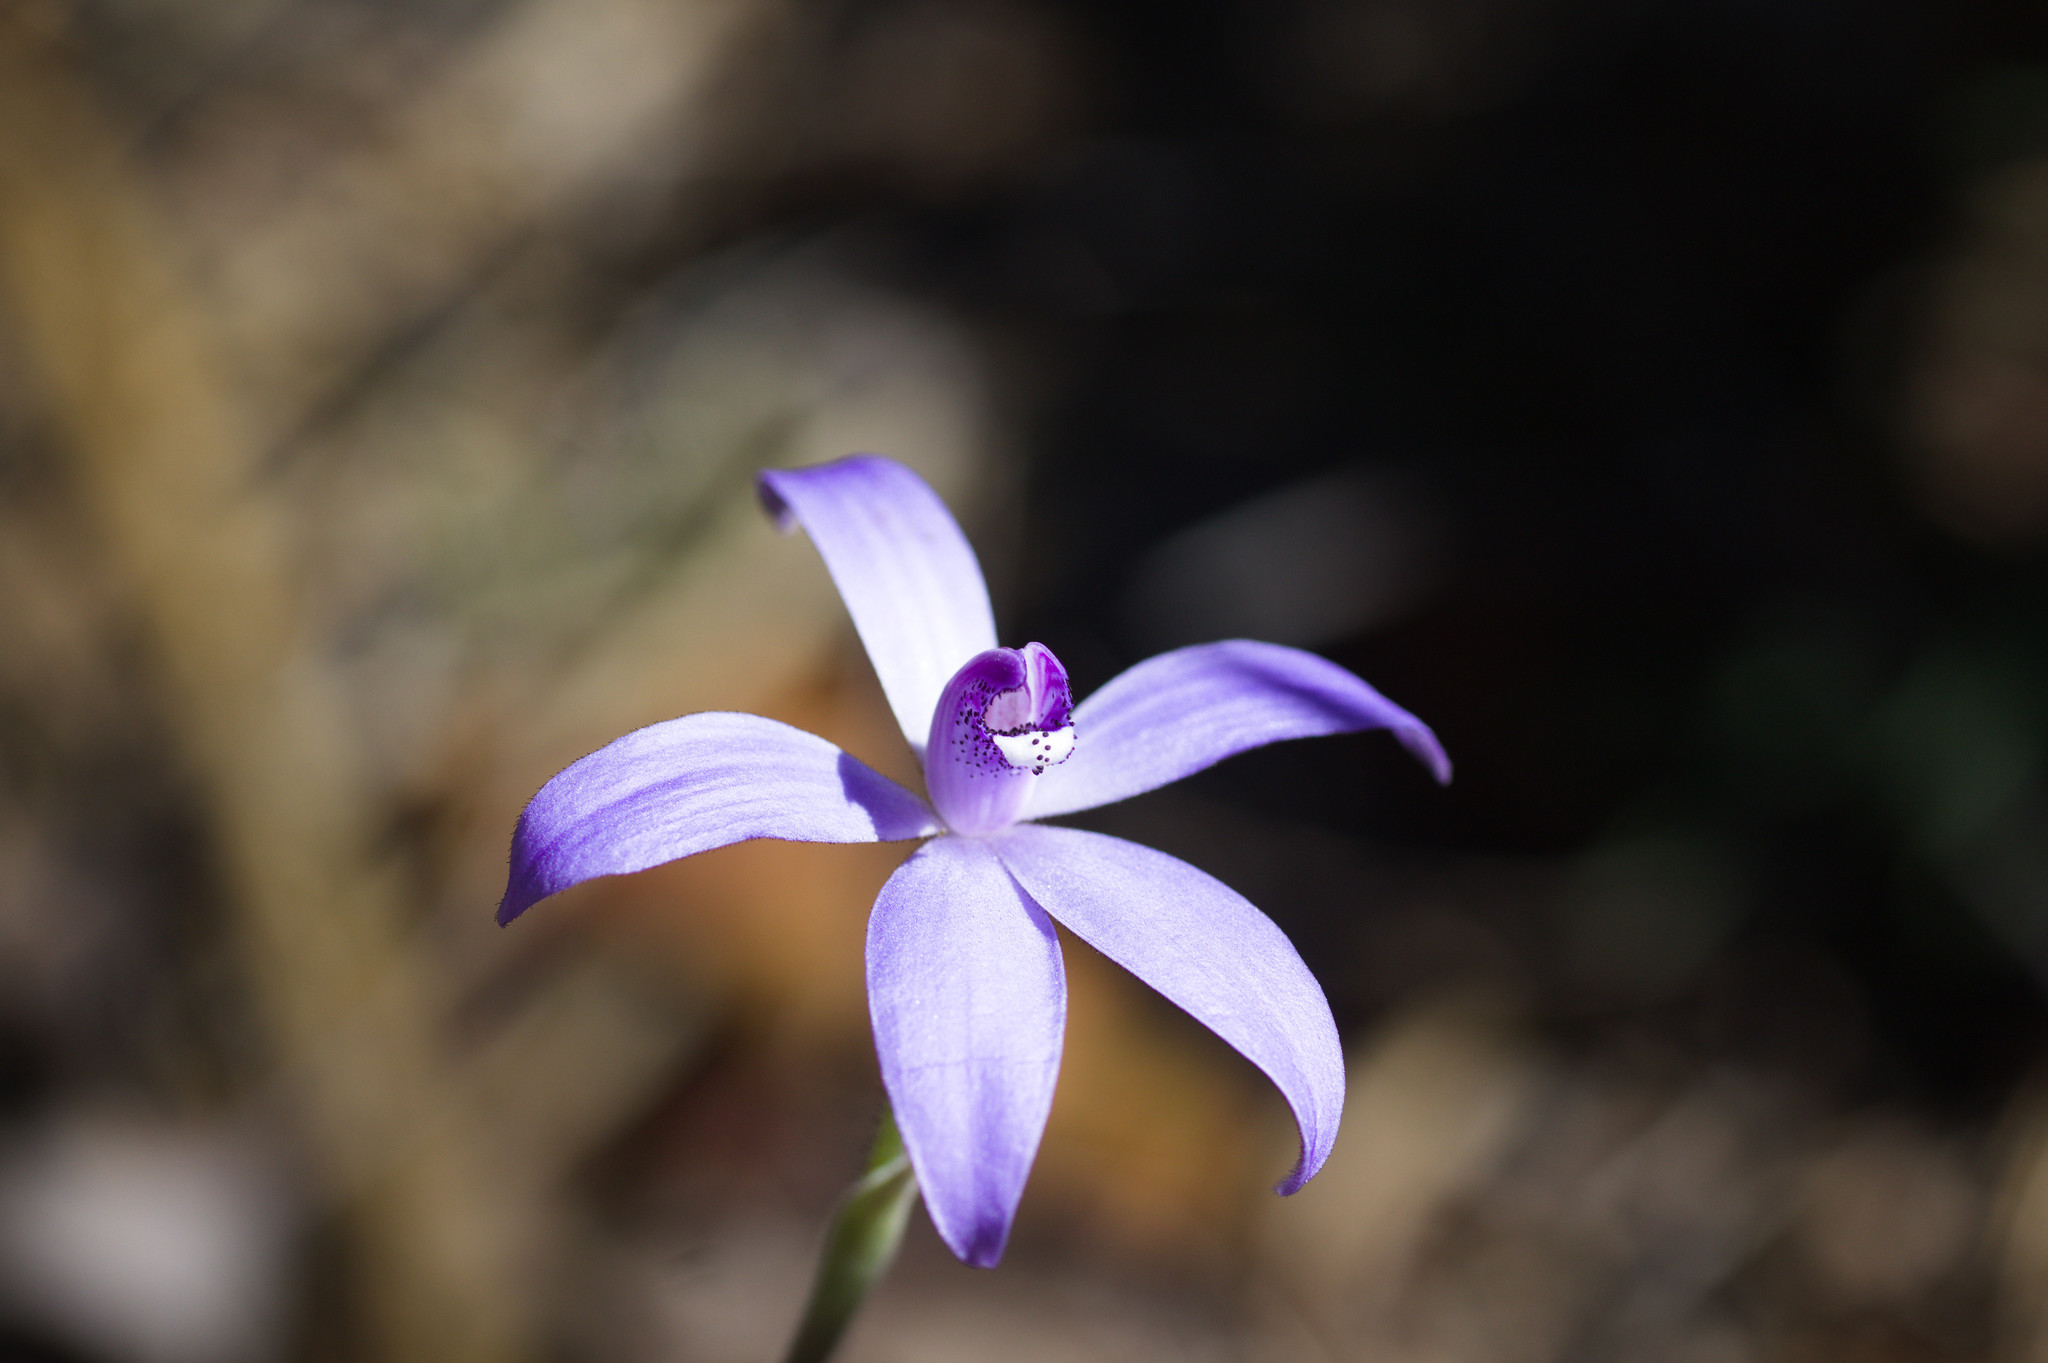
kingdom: Plantae
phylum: Tracheophyta
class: Liliopsida
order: Asparagales
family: Orchidaceae
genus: Caladenia
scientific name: Caladenia sericea
